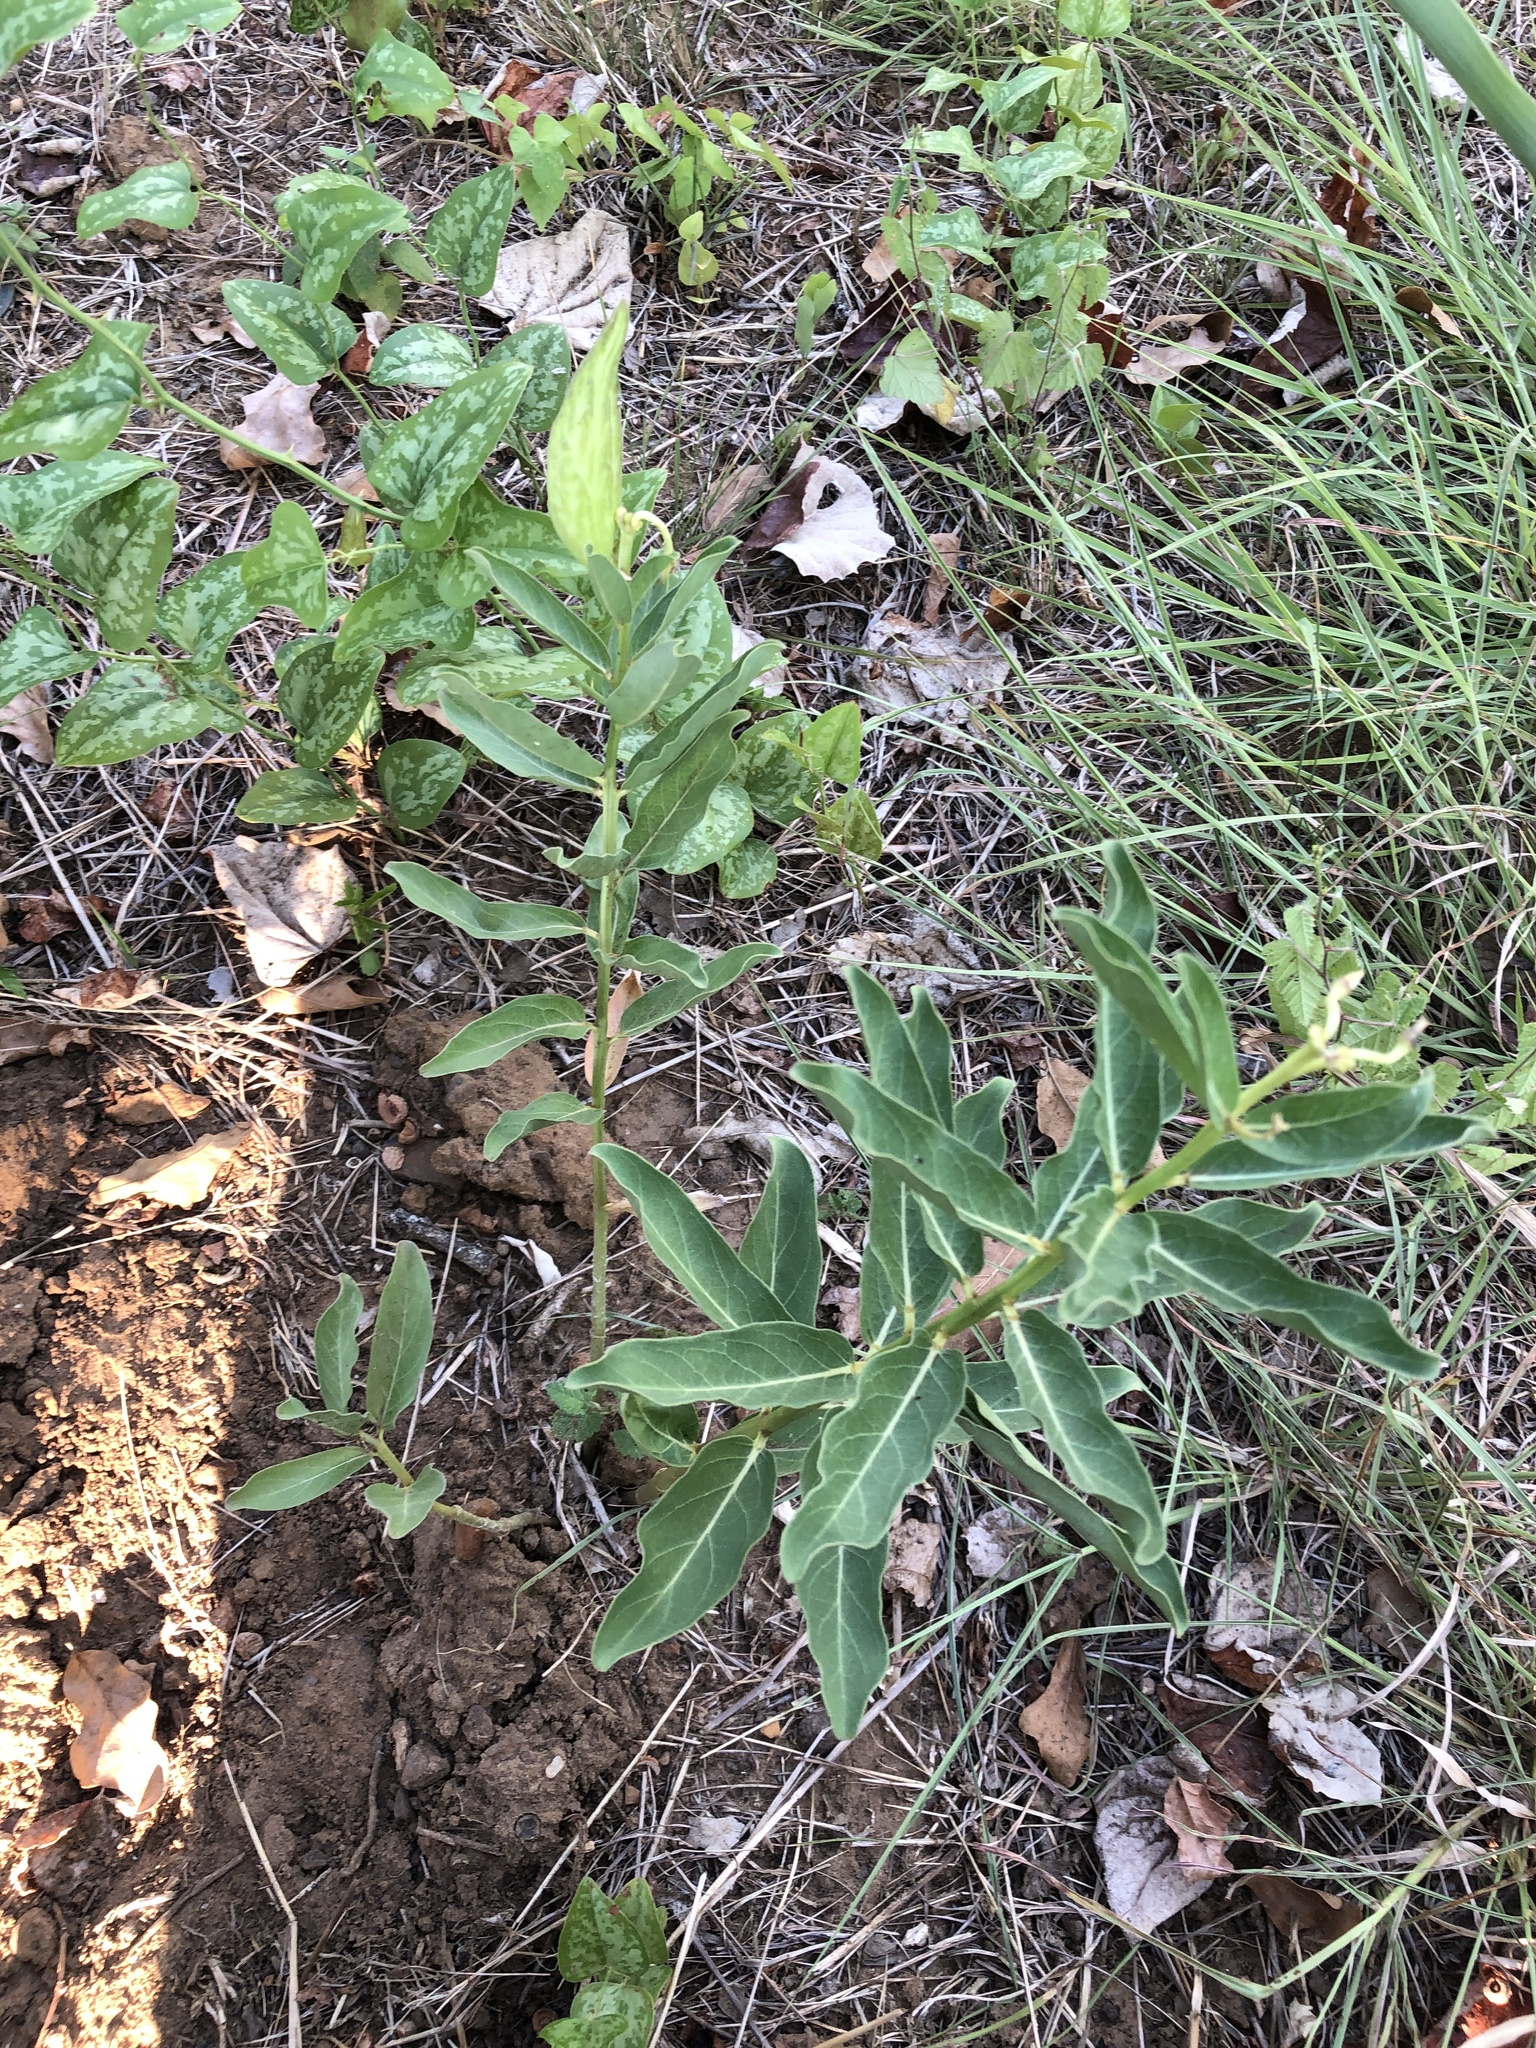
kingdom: Plantae
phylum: Tracheophyta
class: Magnoliopsida
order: Gentianales
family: Apocynaceae
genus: Asclepias
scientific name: Asclepias viridis
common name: Antelope-horns
